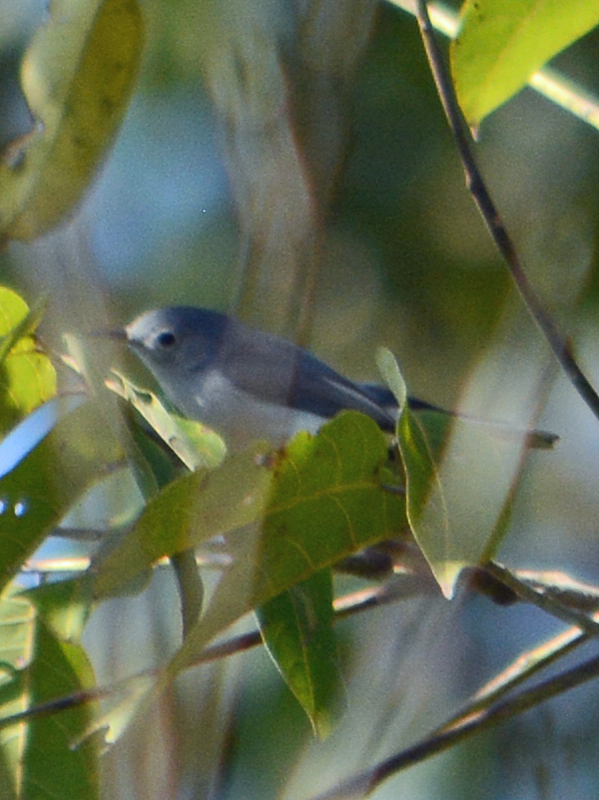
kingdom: Animalia
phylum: Chordata
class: Aves
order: Passeriformes
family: Polioptilidae
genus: Polioptila
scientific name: Polioptila caerulea
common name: Blue-gray gnatcatcher
